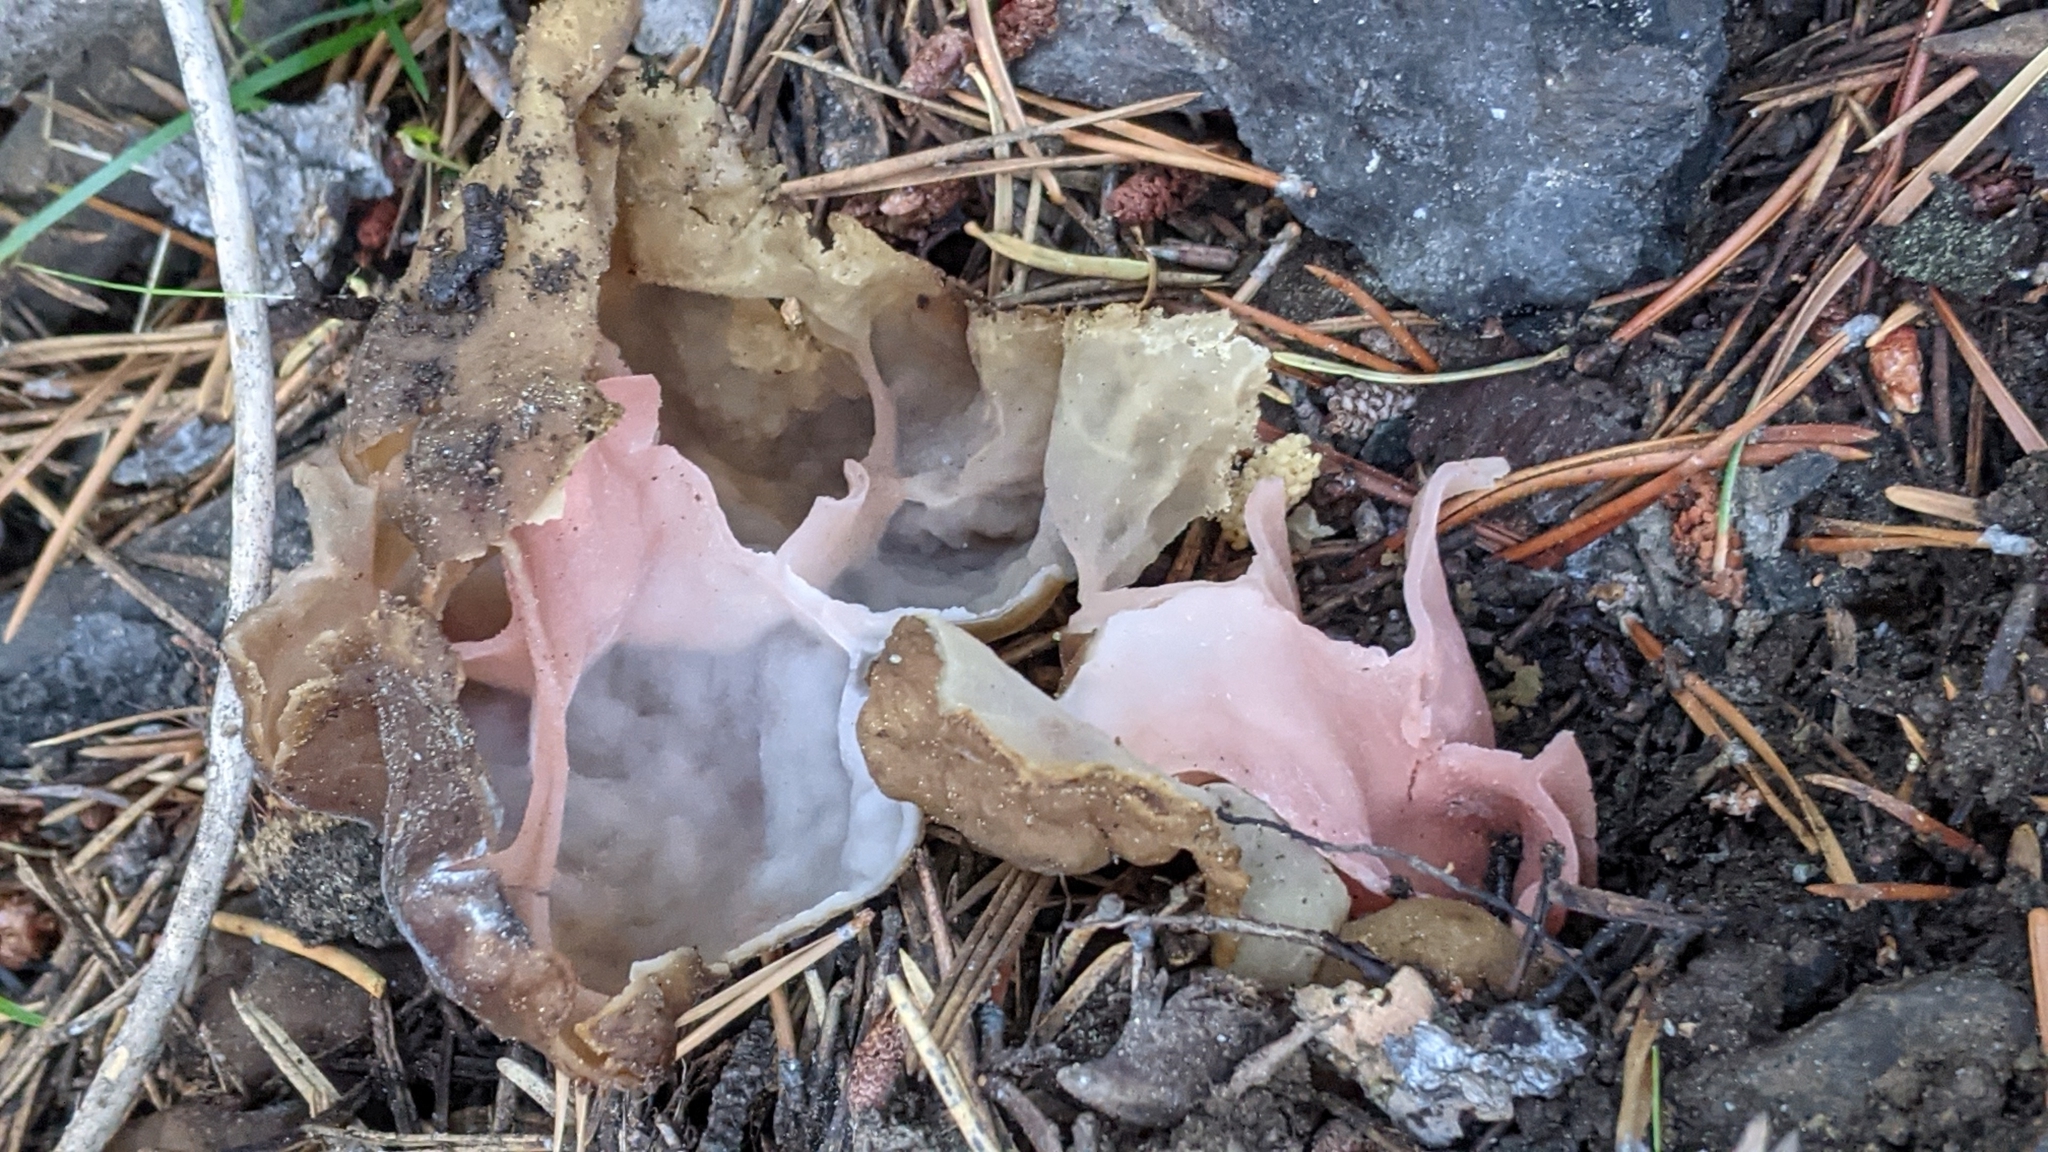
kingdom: Fungi
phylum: Ascomycota
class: Pezizomycetes
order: Pezizales
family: Discinaceae
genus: Gyromitra
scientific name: Gyromitra californica
